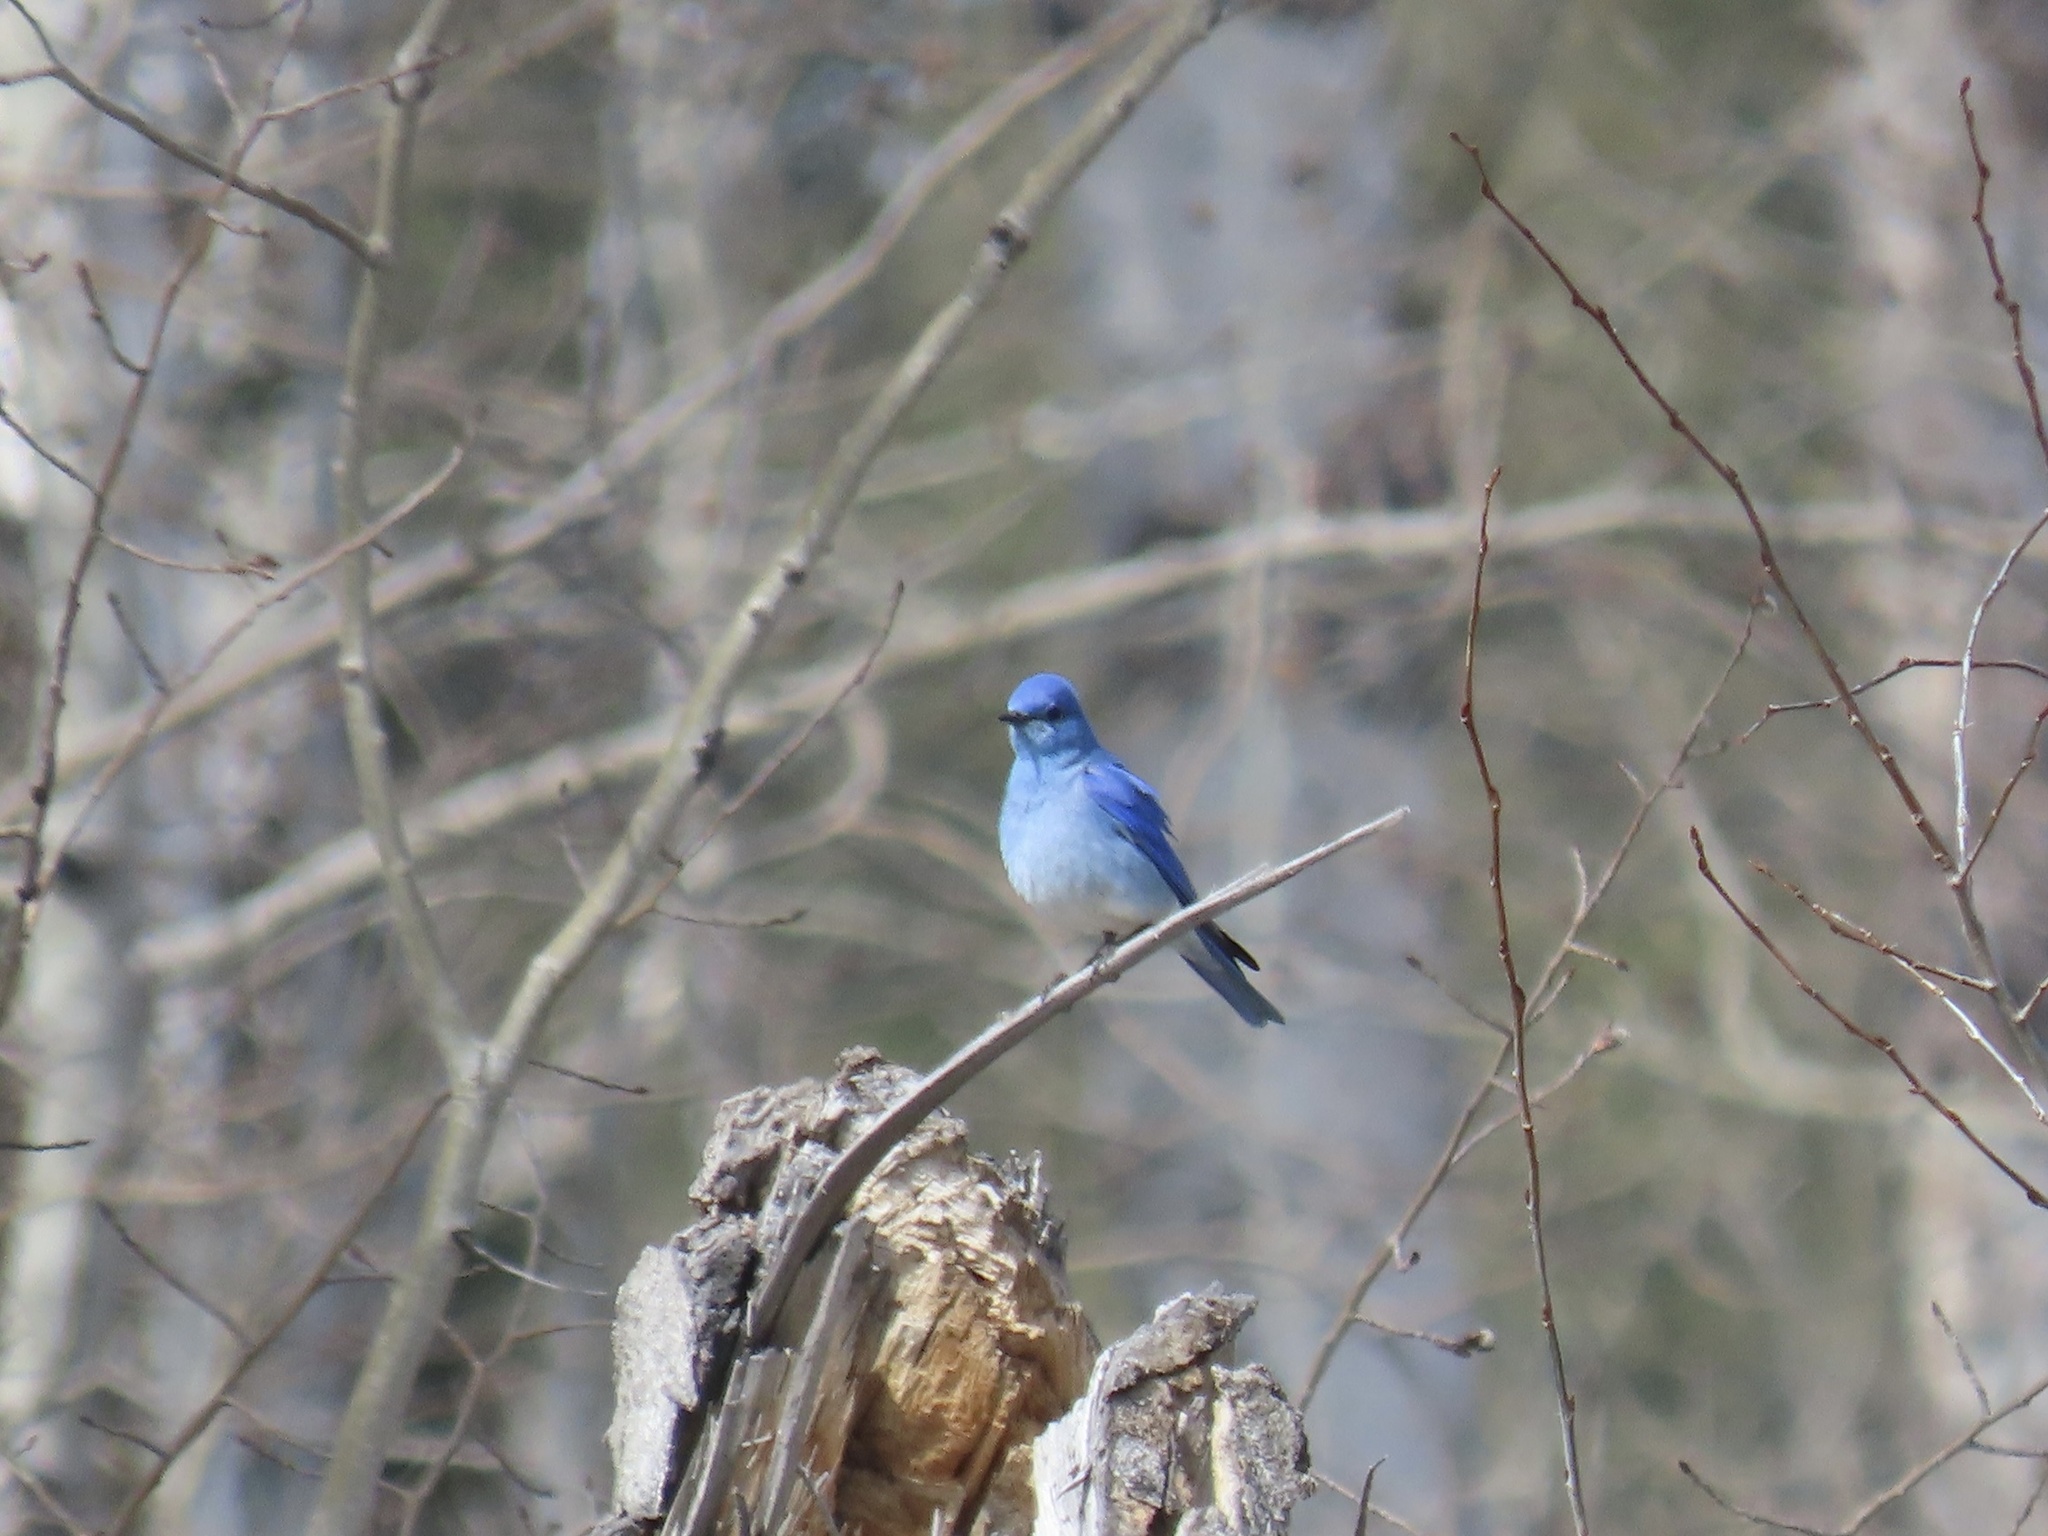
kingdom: Animalia
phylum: Chordata
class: Aves
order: Passeriformes
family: Turdidae
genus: Sialia
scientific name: Sialia currucoides
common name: Mountain bluebird
